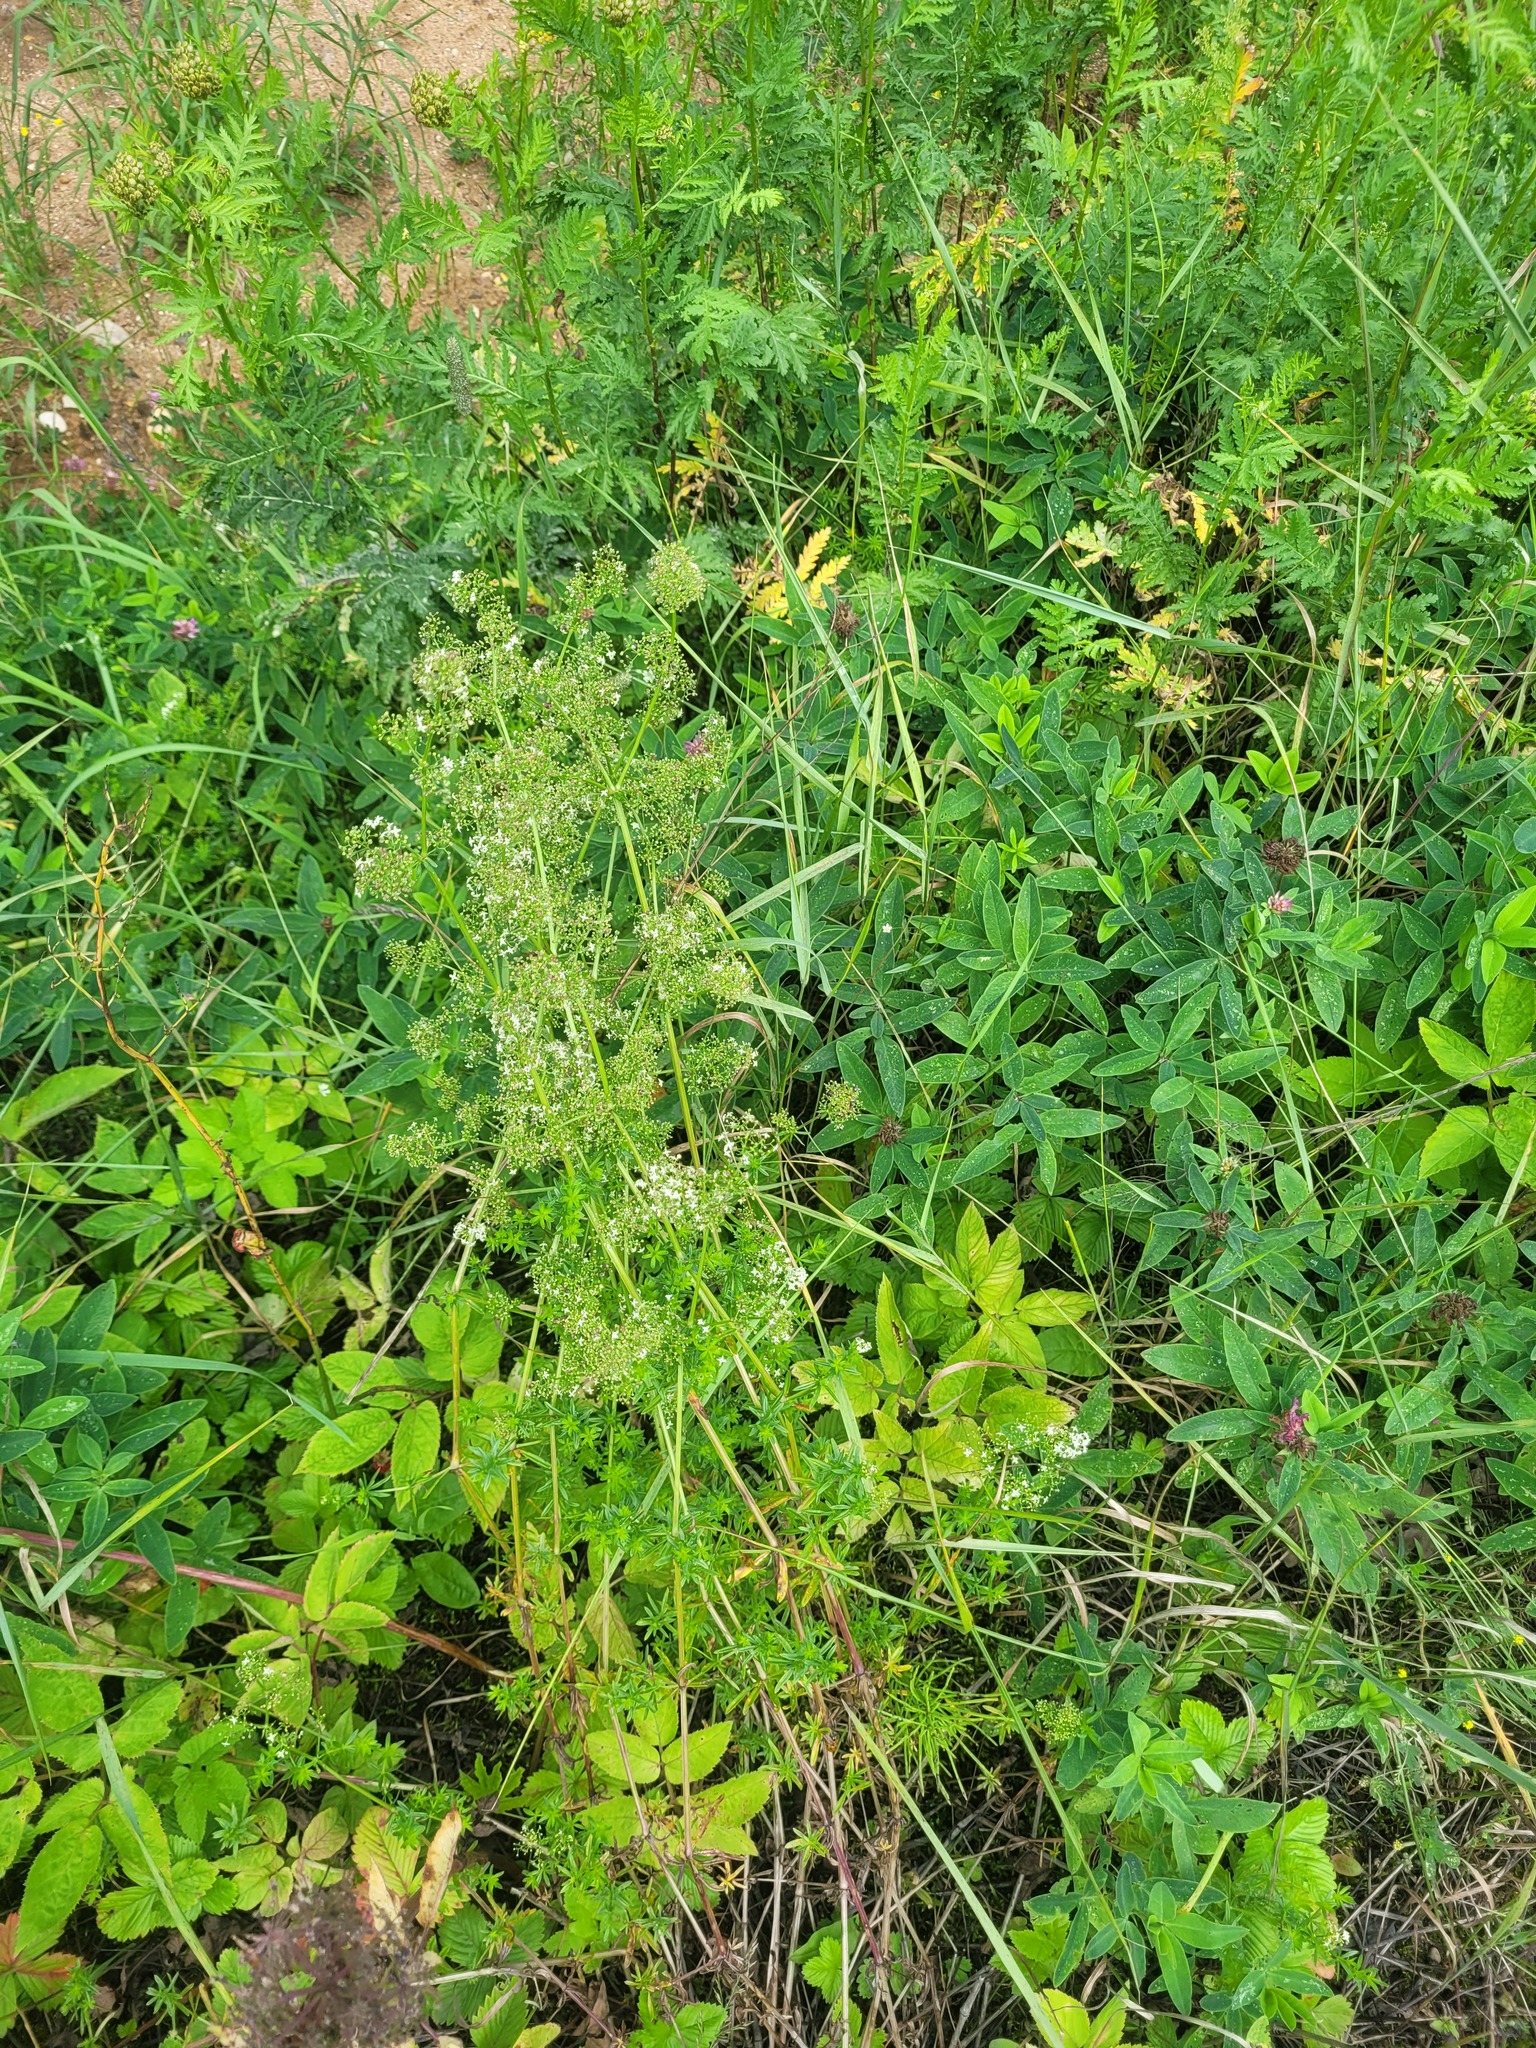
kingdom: Plantae
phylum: Tracheophyta
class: Magnoliopsida
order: Gentianales
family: Rubiaceae
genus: Galium
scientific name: Galium mollugo
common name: Hedge bedstraw
